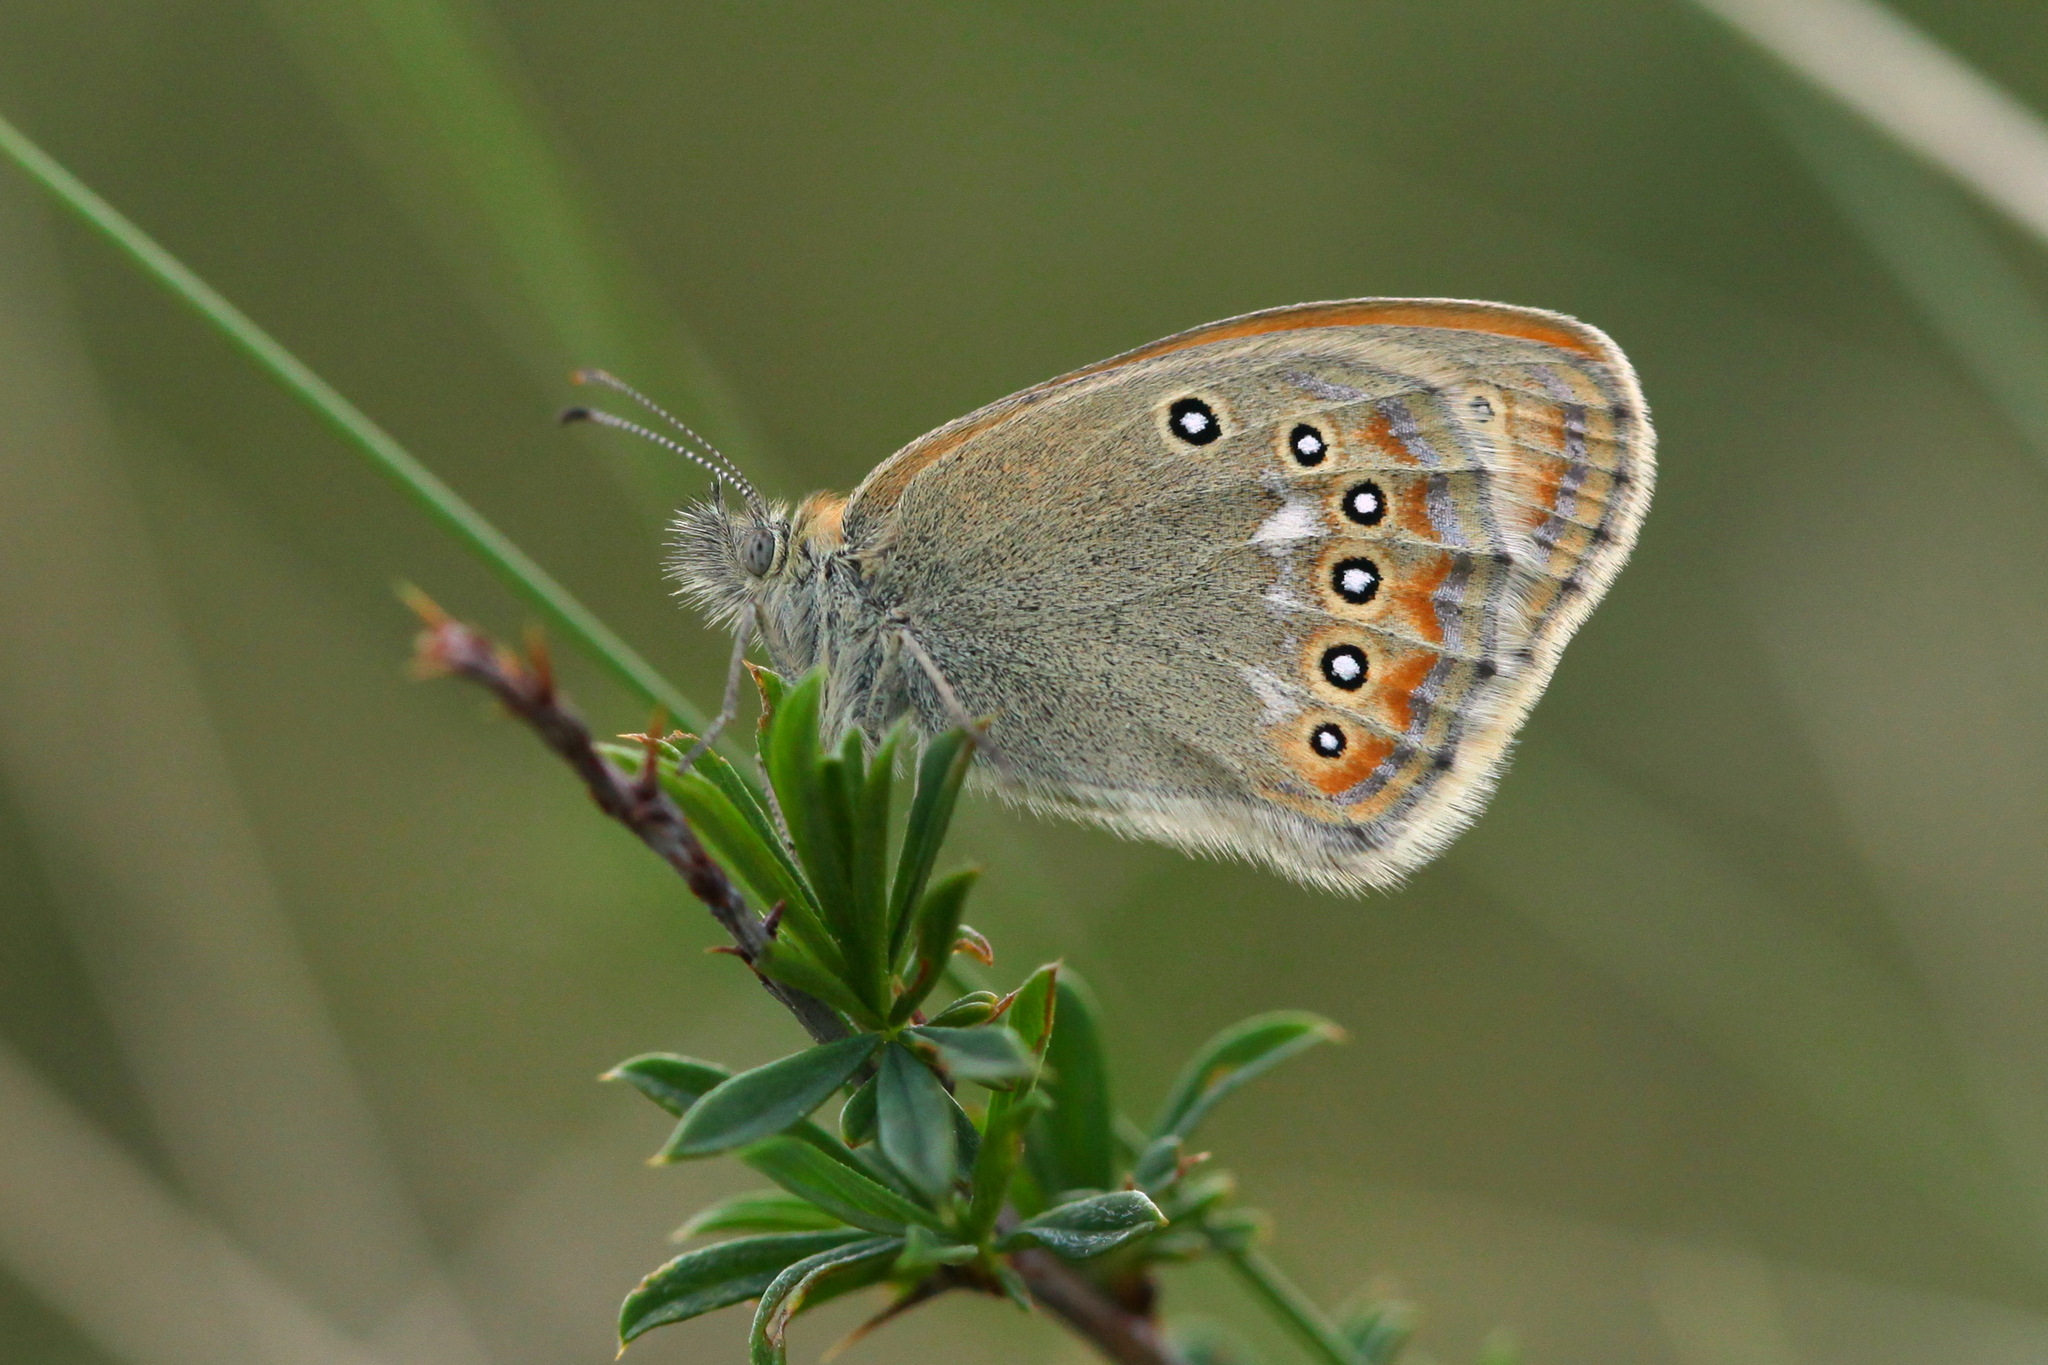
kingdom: Animalia
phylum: Arthropoda
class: Insecta
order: Lepidoptera
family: Nymphalidae
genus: Coenonympha
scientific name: Coenonympha amaryllis
